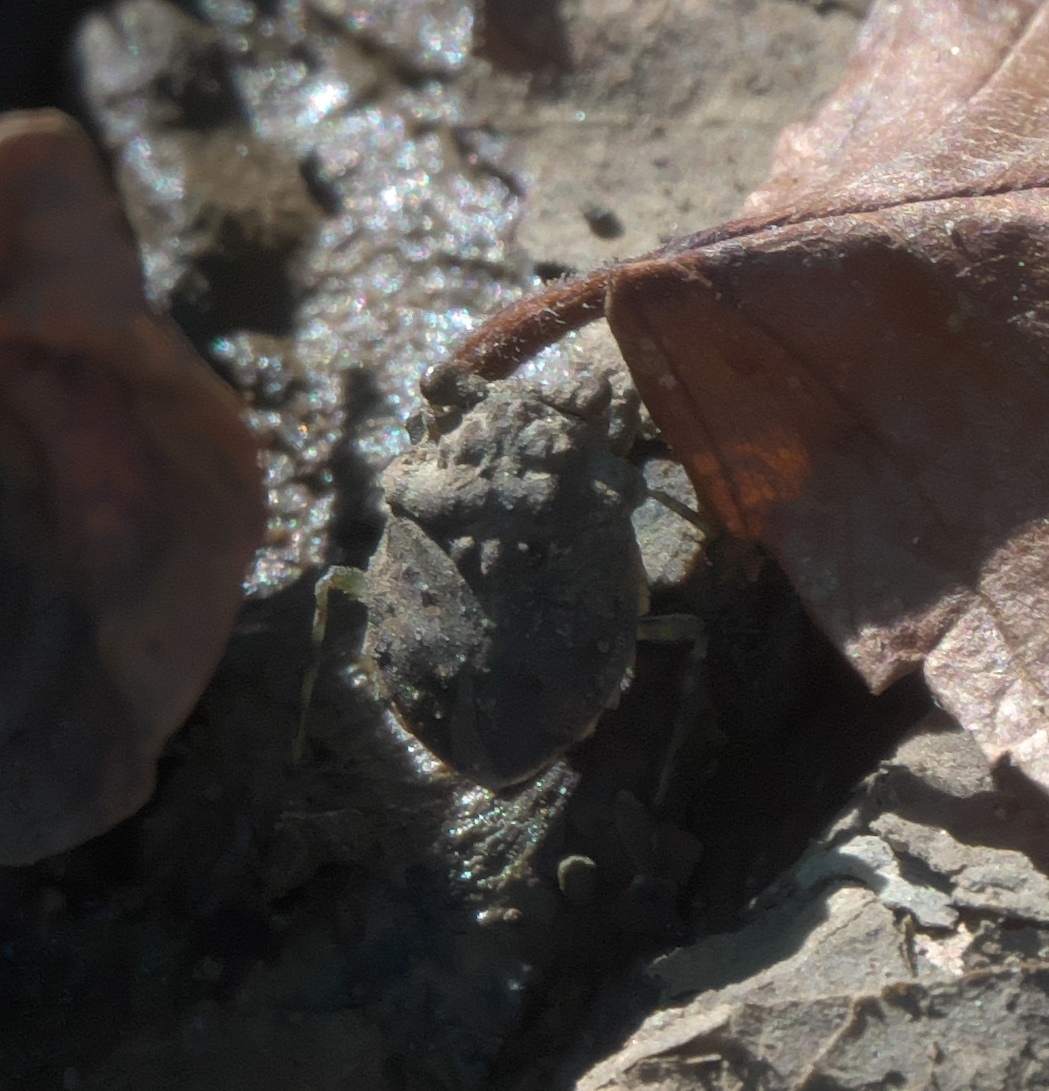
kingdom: Animalia
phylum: Arthropoda
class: Insecta
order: Hemiptera
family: Gelastocoridae
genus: Gelastocoris
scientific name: Gelastocoris oculatus
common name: Toad bug
